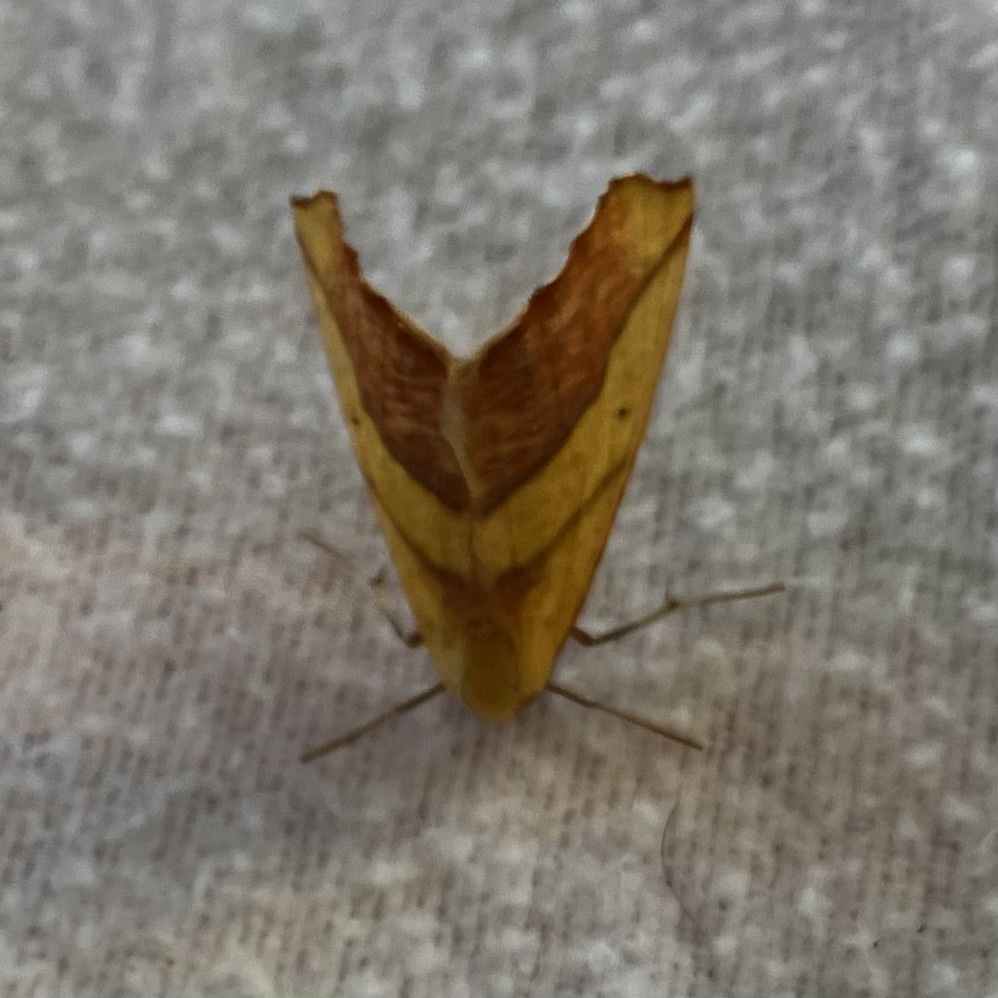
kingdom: Animalia
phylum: Arthropoda
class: Insecta
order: Lepidoptera
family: Geometridae
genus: Sicya
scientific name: Sicya macularia
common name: Sharp-lined yellow
